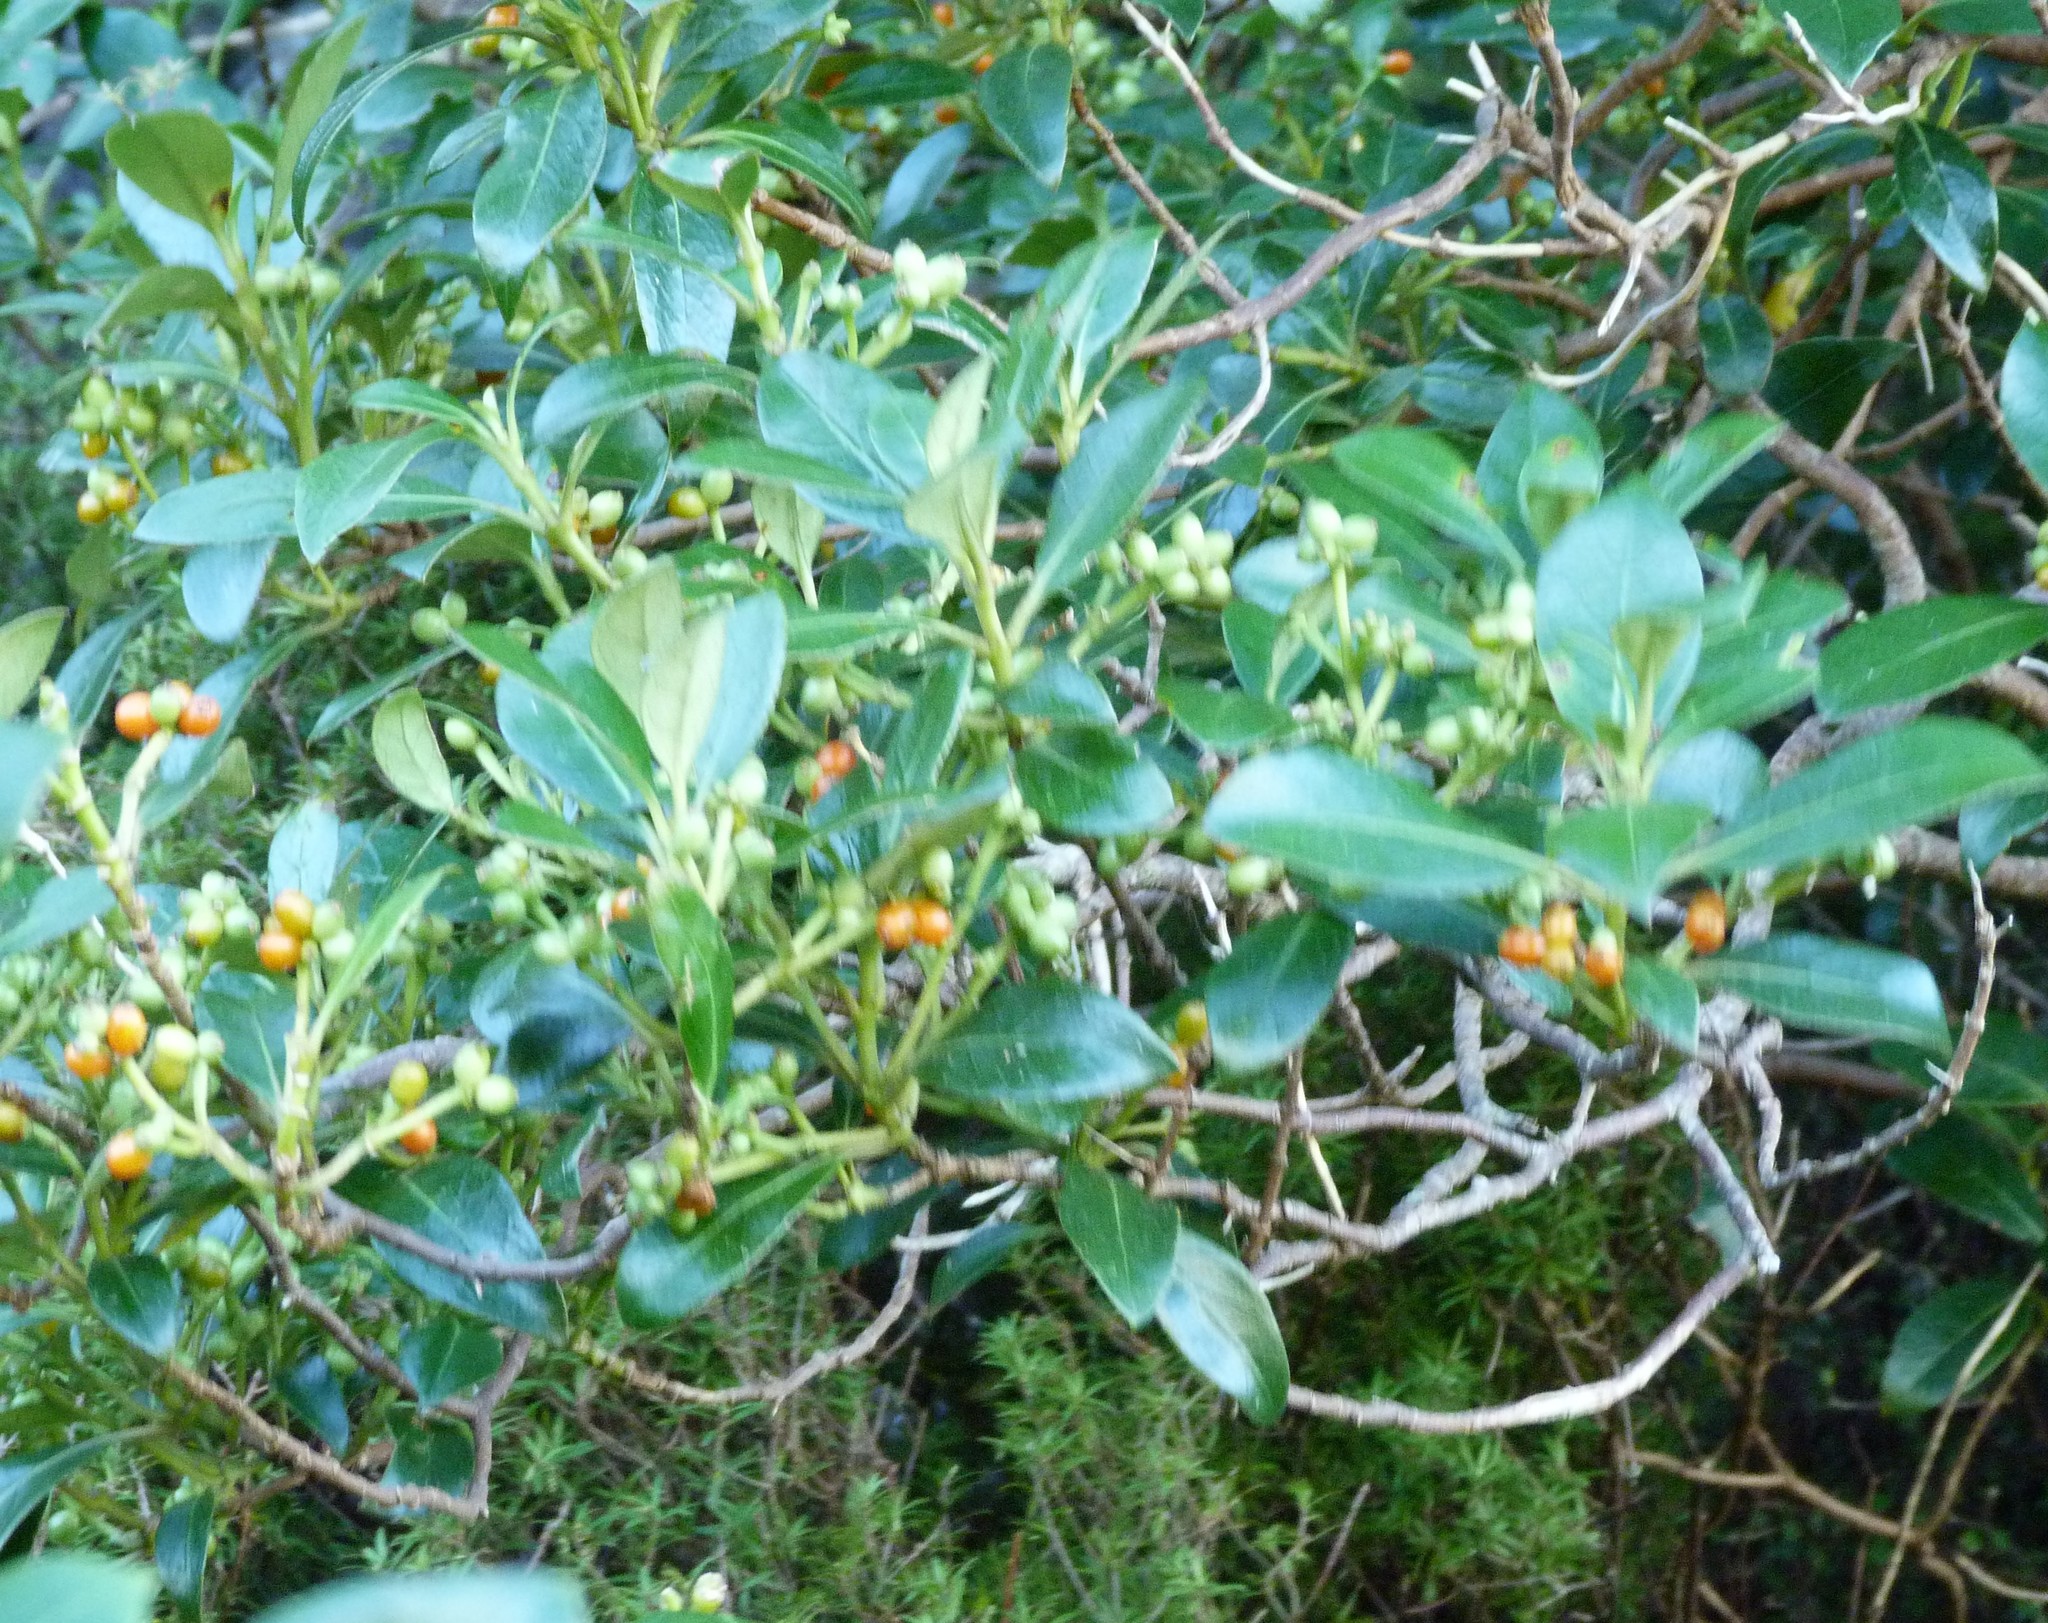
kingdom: Plantae
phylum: Tracheophyta
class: Magnoliopsida
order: Gentianales
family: Rubiaceae
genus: Coprosma
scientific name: Coprosma lucida
